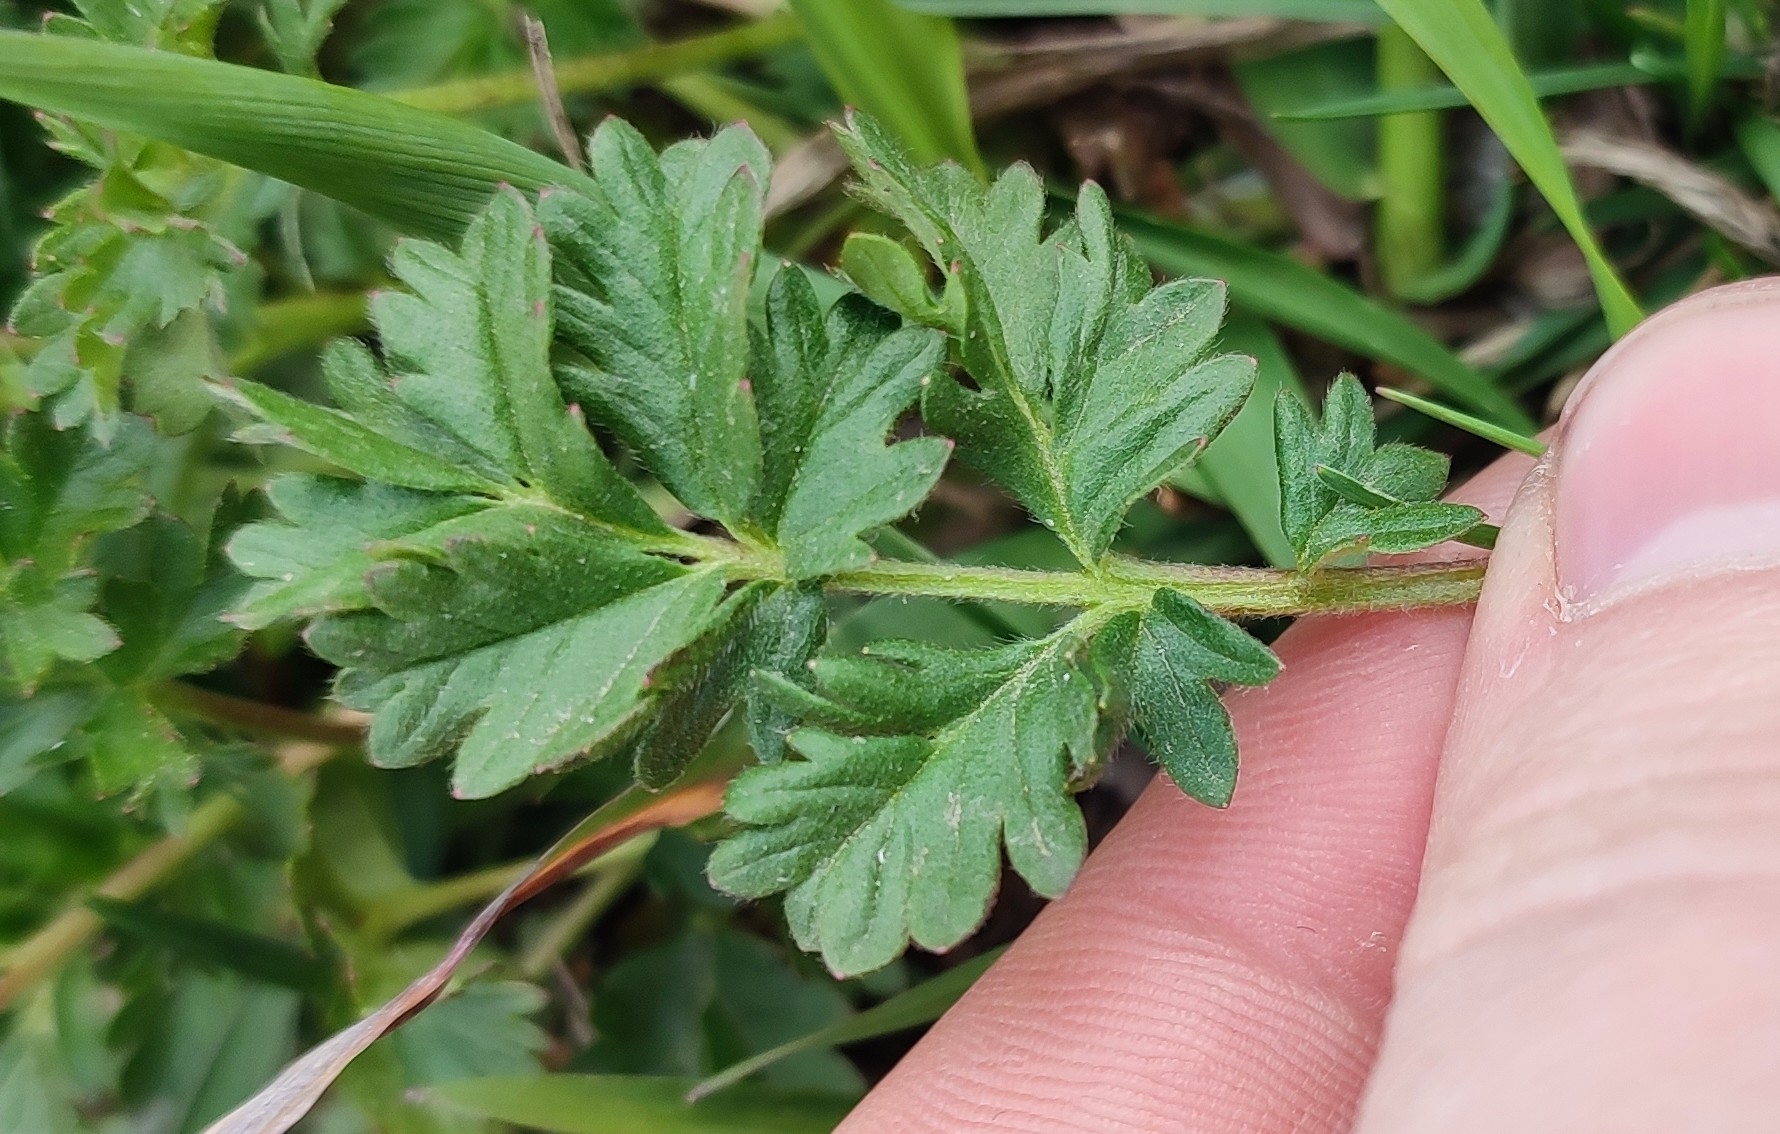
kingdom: Plantae
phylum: Tracheophyta
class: Magnoliopsida
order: Rosales
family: Rosaceae
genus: Potentilla
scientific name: Potentilla supina
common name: Prostrate cinquefoil
